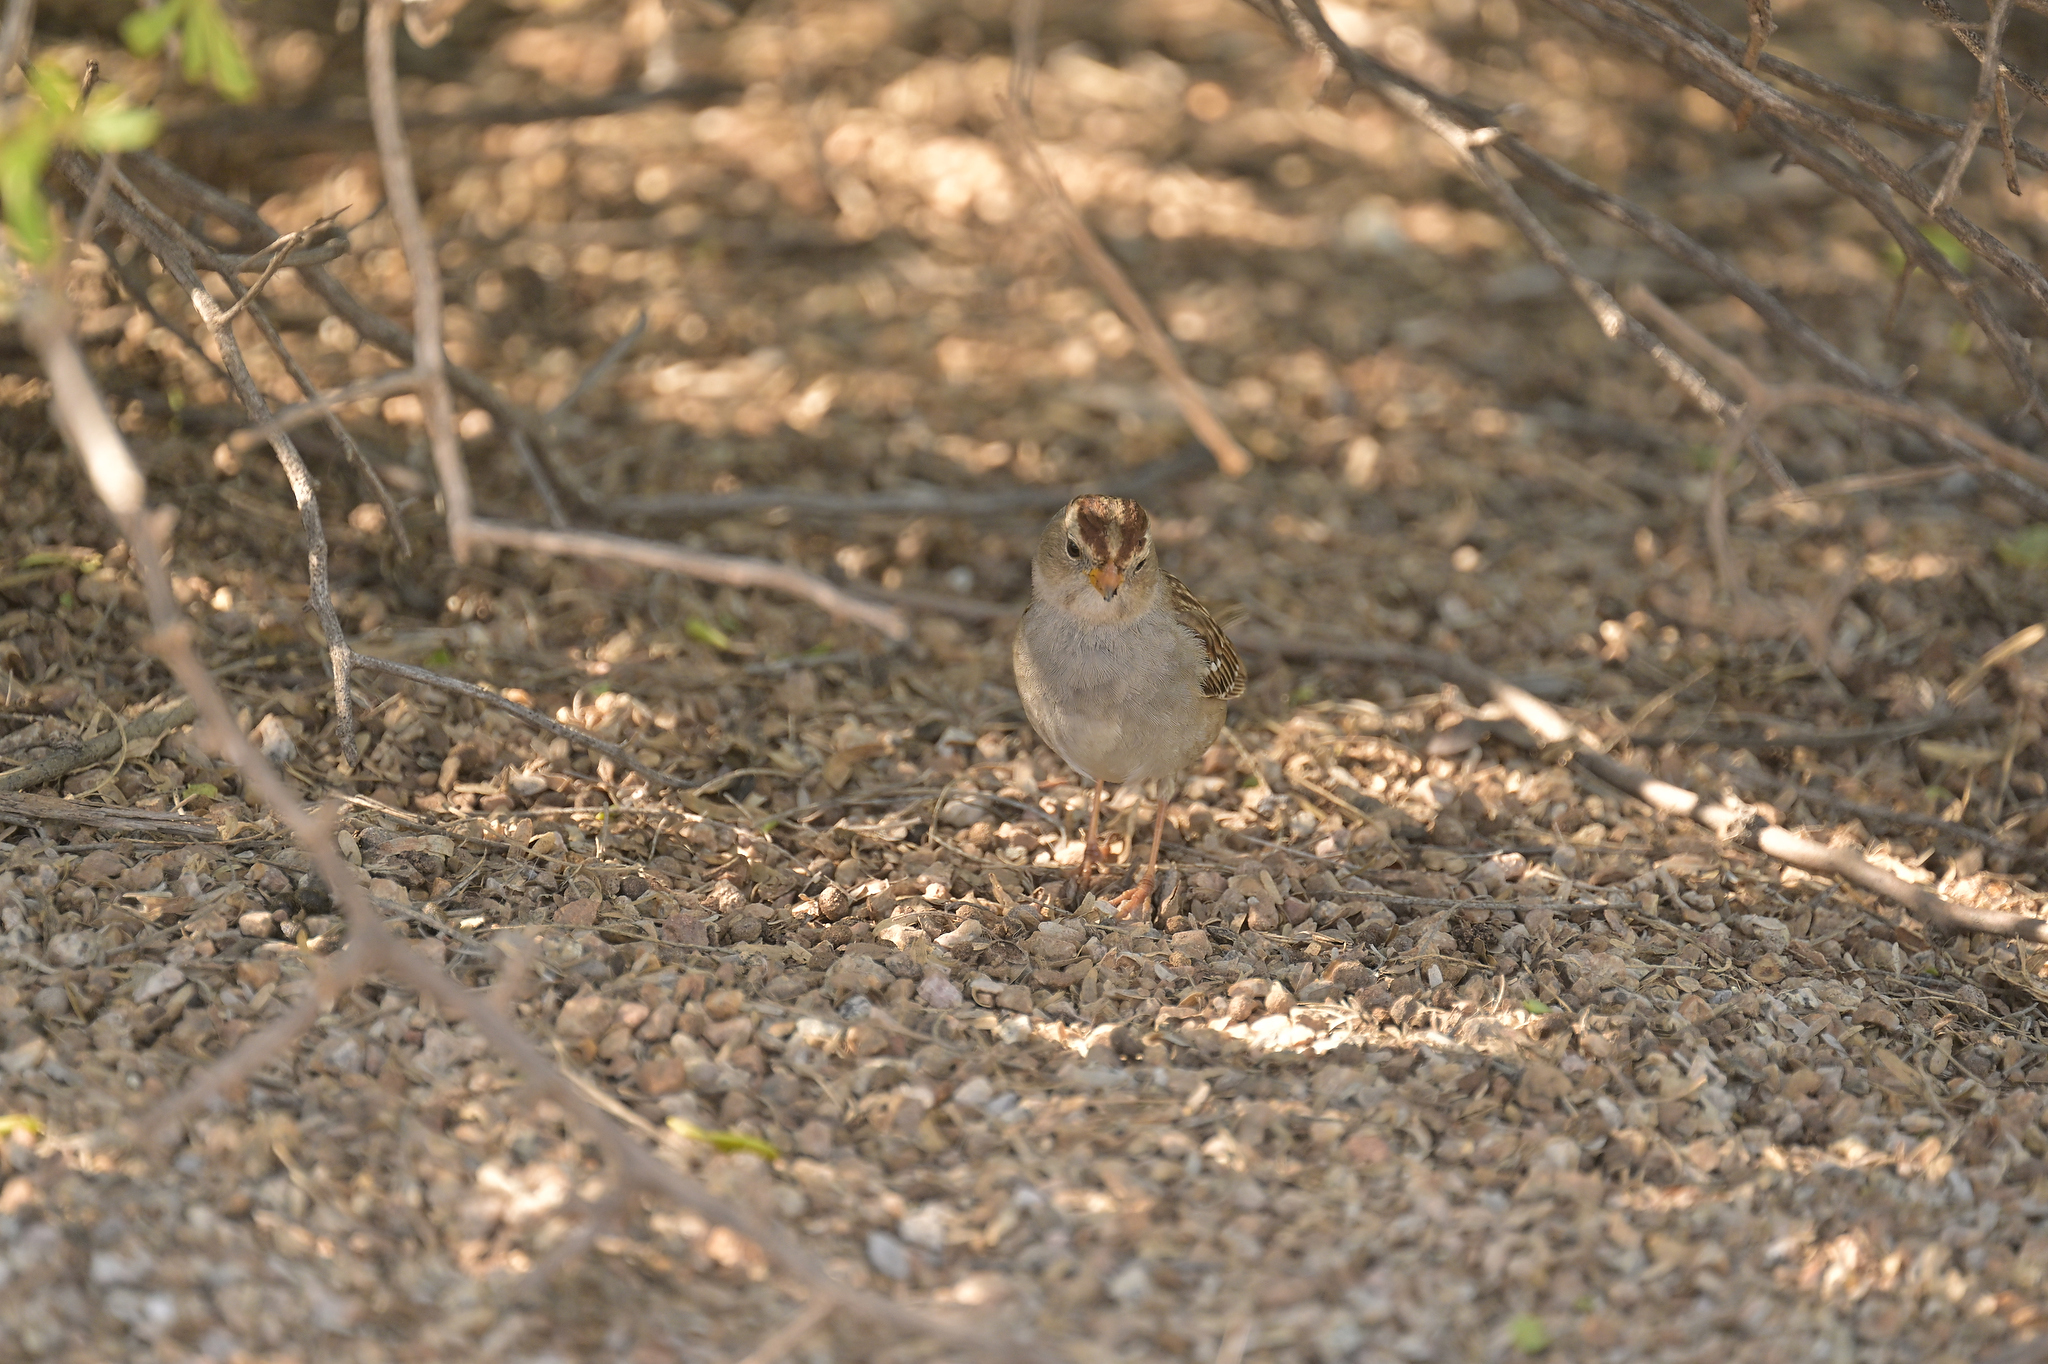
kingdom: Animalia
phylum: Chordata
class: Aves
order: Passeriformes
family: Passerellidae
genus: Zonotrichia
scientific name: Zonotrichia leucophrys
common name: White-crowned sparrow
